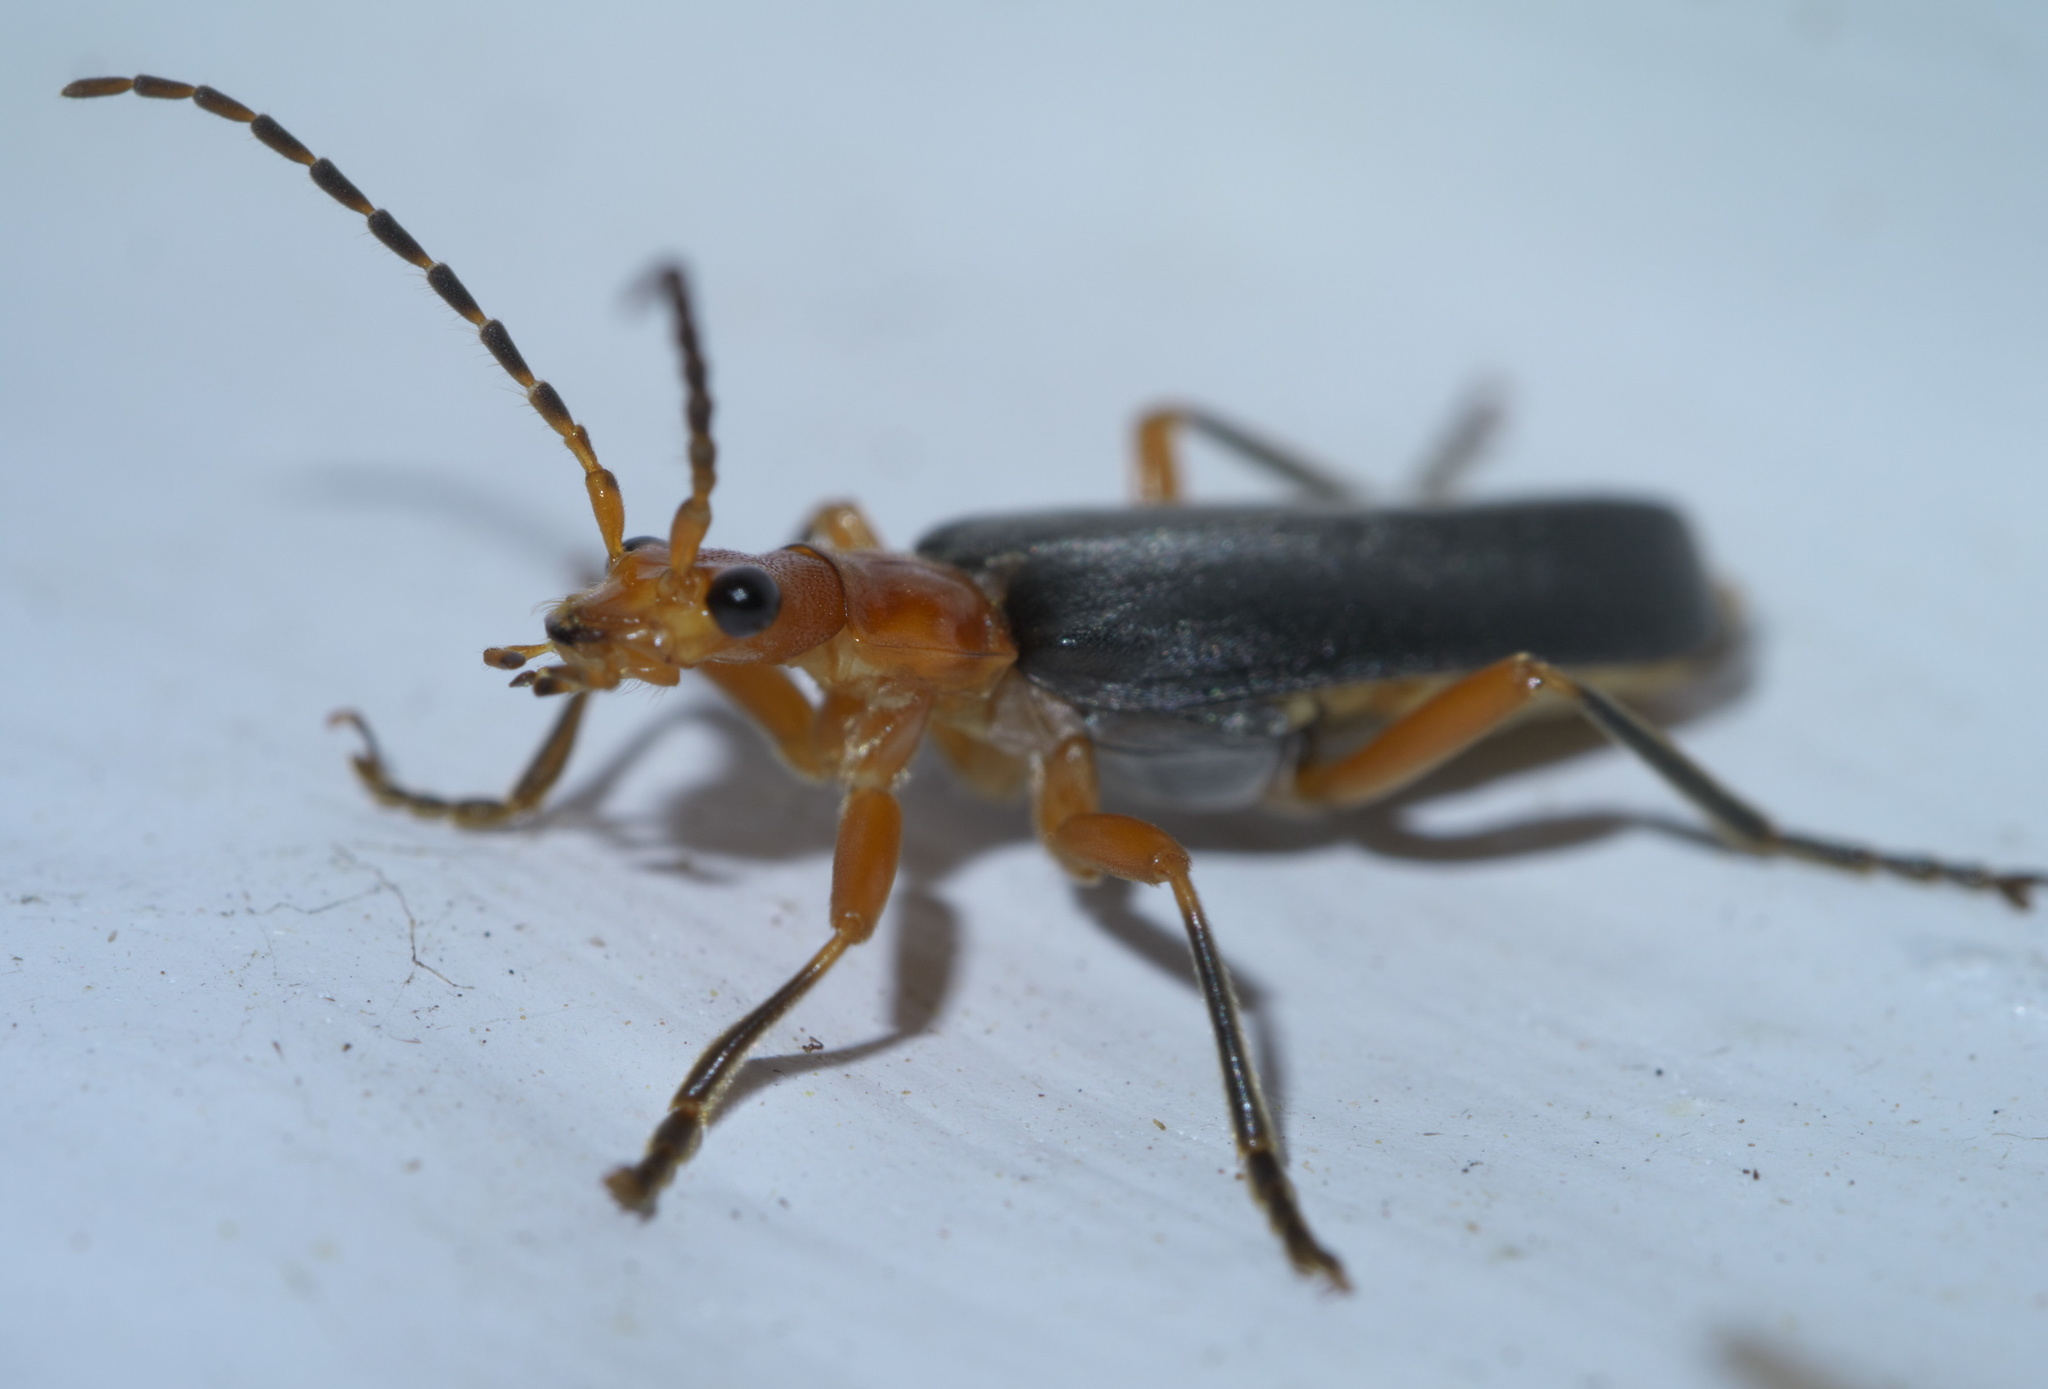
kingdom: Animalia
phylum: Arthropoda
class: Insecta
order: Coleoptera
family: Cantharidae
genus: Podabrus
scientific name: Podabrus tomentosus
